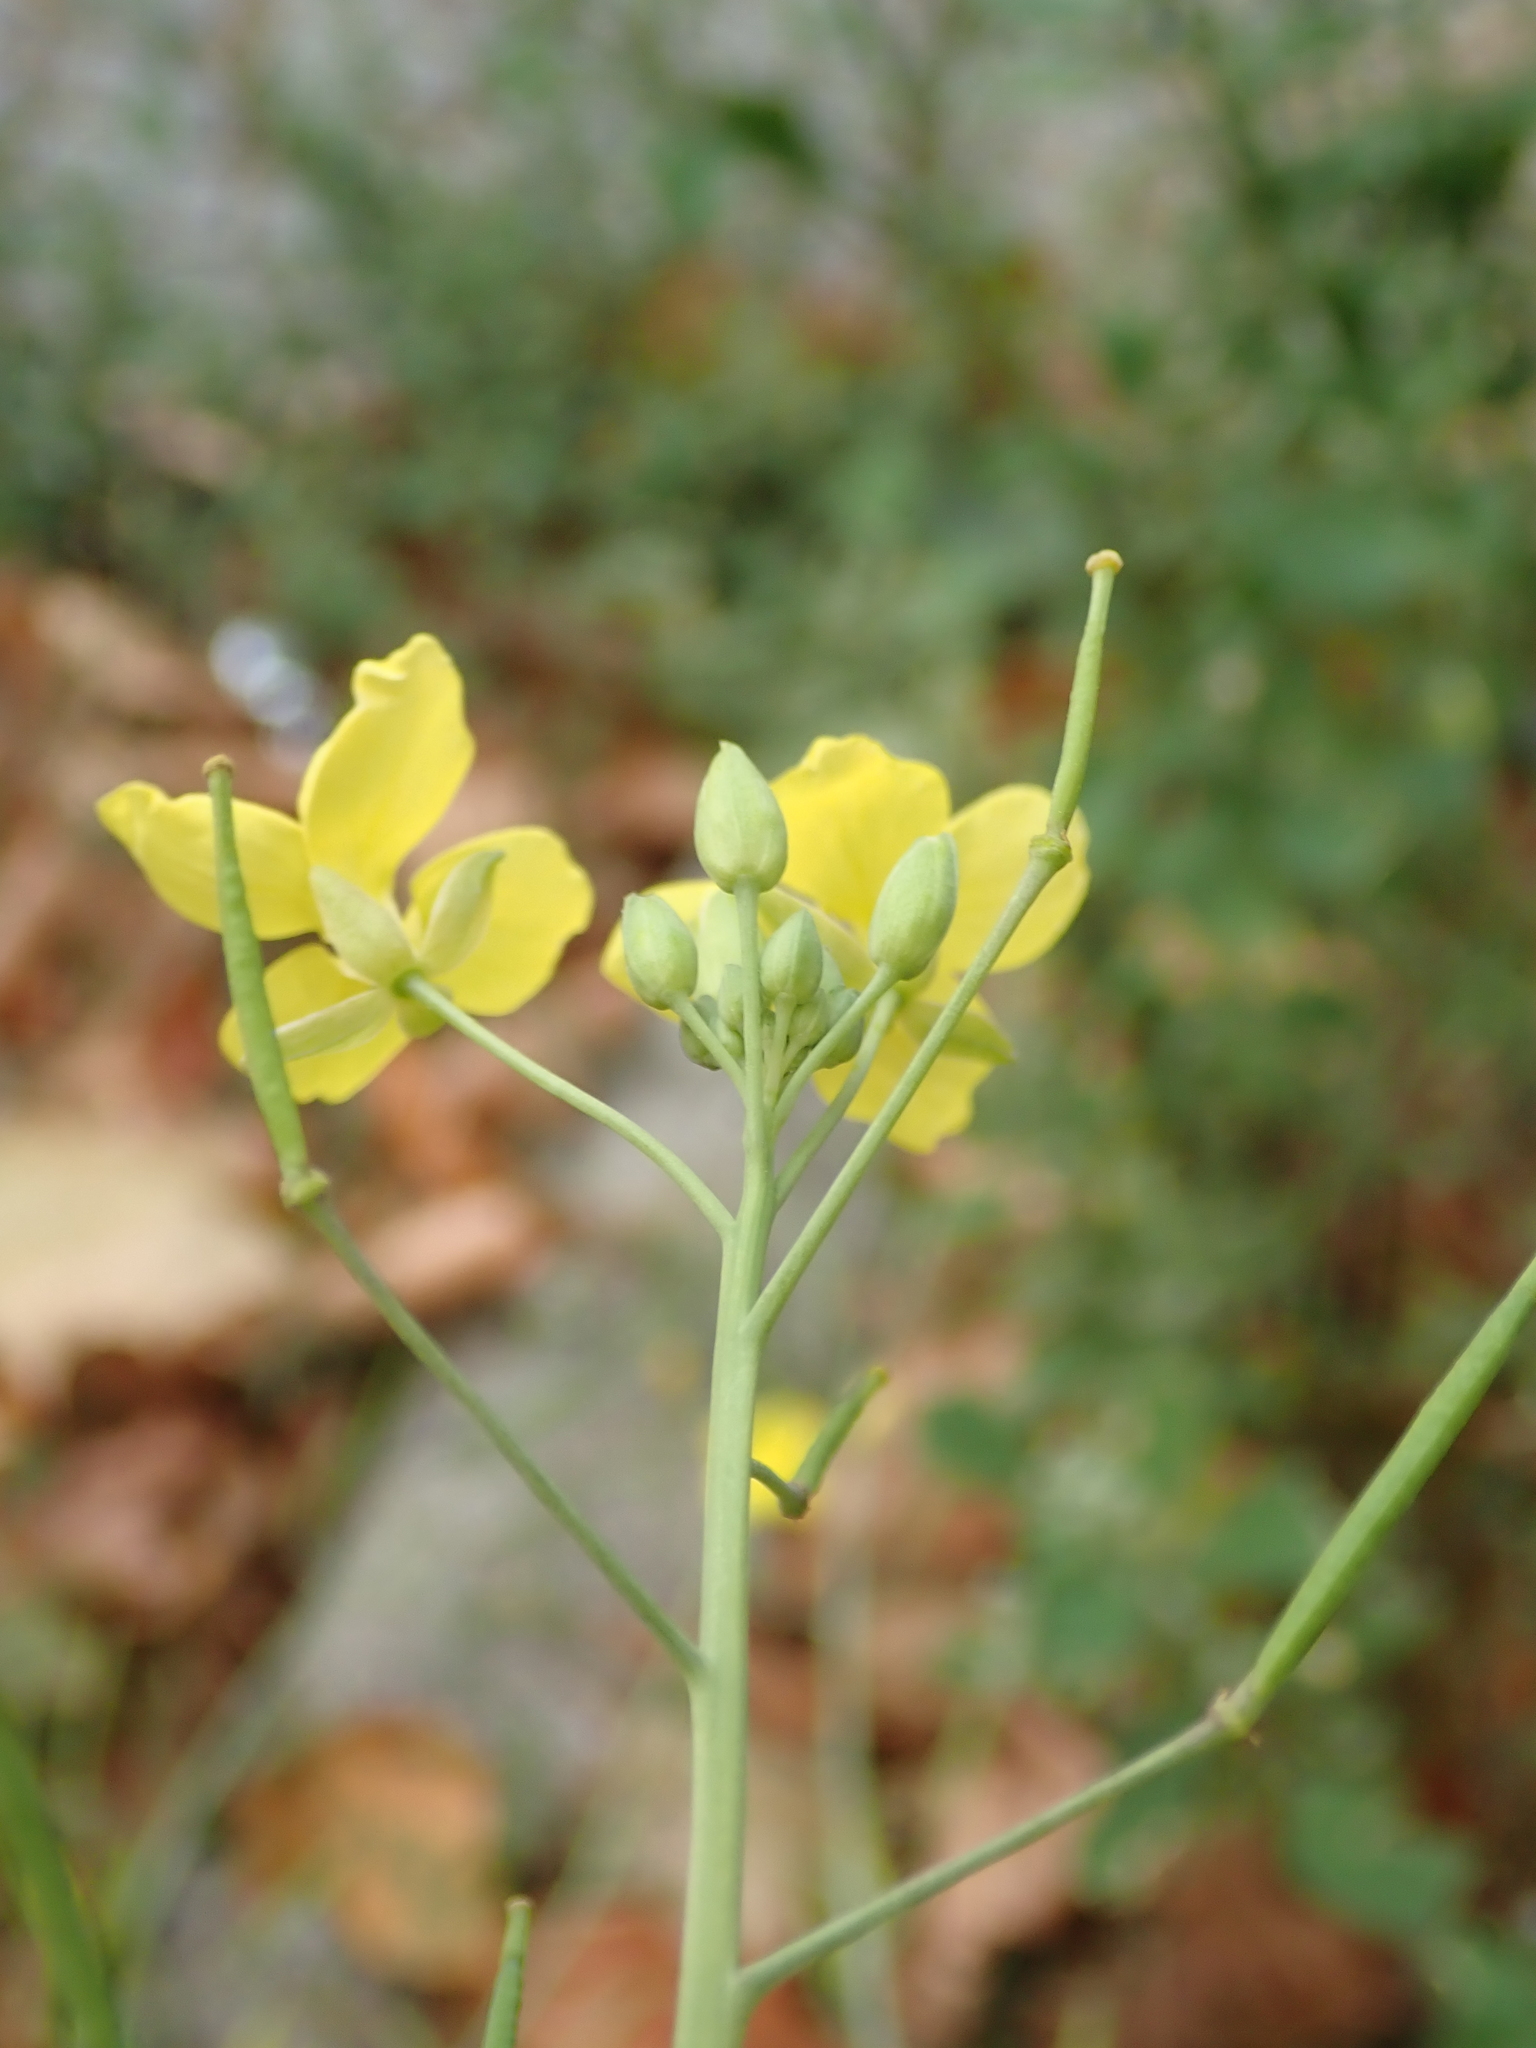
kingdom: Plantae
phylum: Tracheophyta
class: Magnoliopsida
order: Brassicales
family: Brassicaceae
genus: Diplotaxis
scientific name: Diplotaxis tenuifolia
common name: Perennial wall-rocket
